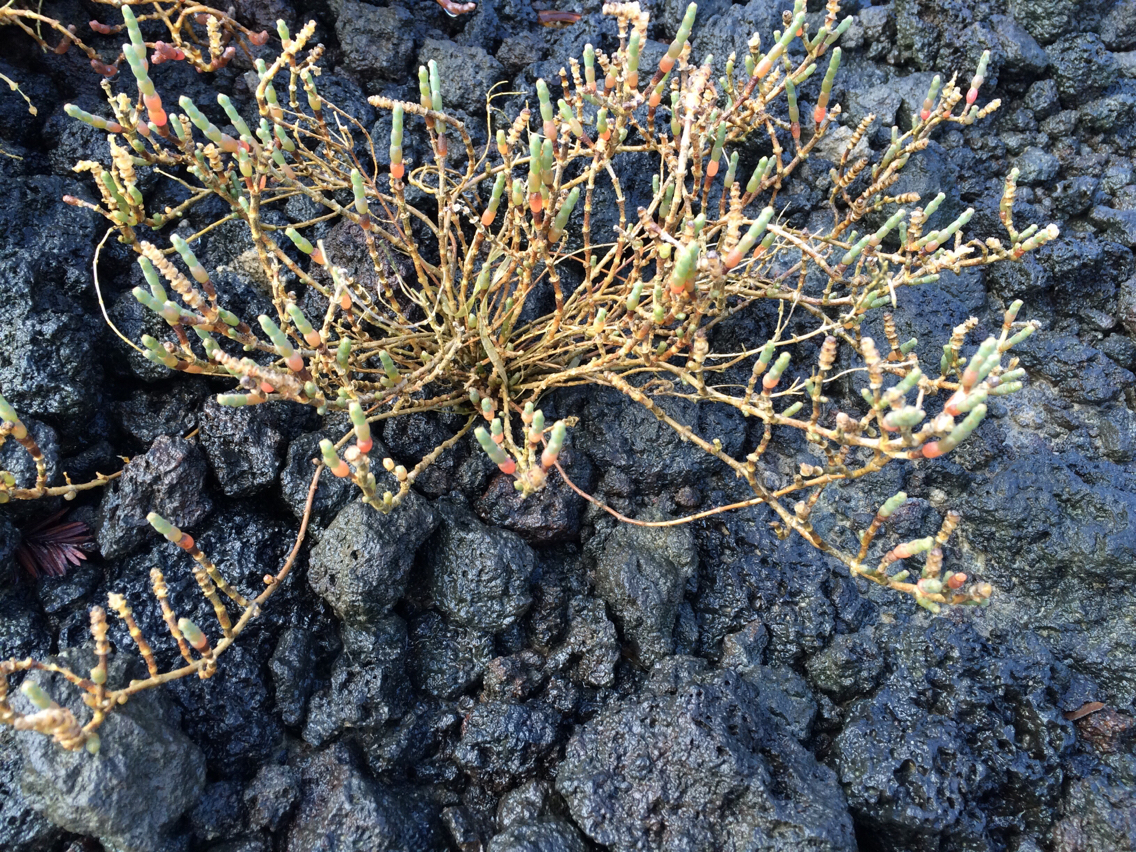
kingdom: Plantae
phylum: Tracheophyta
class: Magnoliopsida
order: Caryophyllales
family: Amaranthaceae
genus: Salicornia
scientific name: Salicornia quinqueflora
